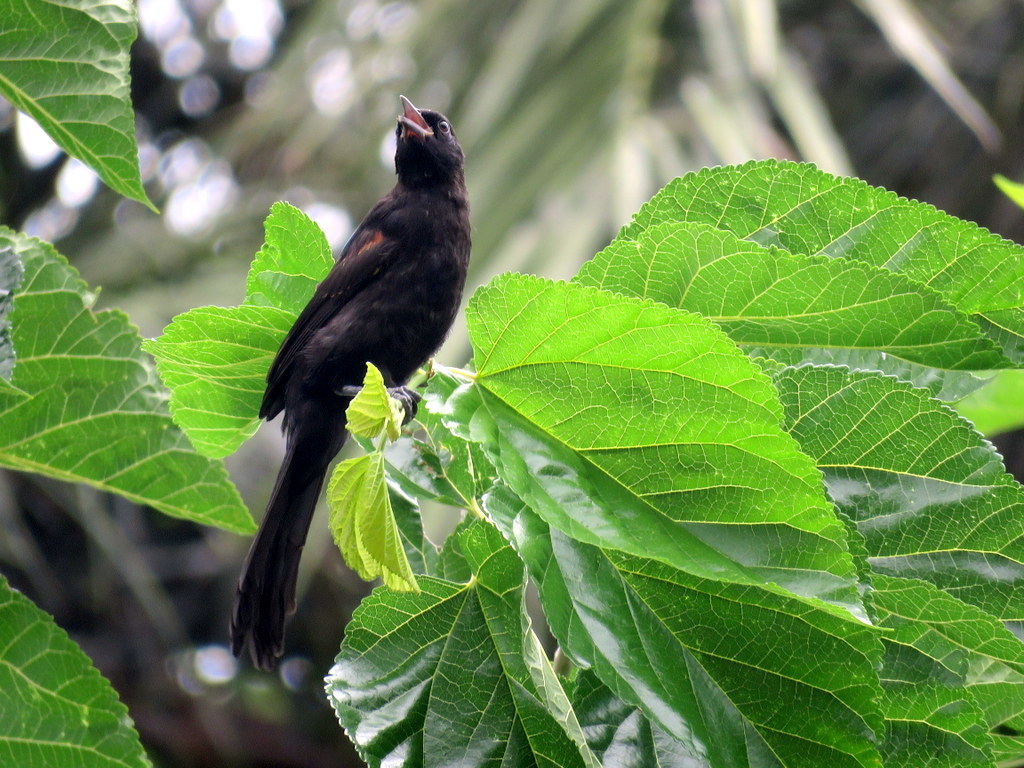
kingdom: Animalia
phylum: Chordata
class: Aves
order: Passeriformes
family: Icteridae
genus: Icterus
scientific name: Icterus cayanensis
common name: Epaulet oriole
